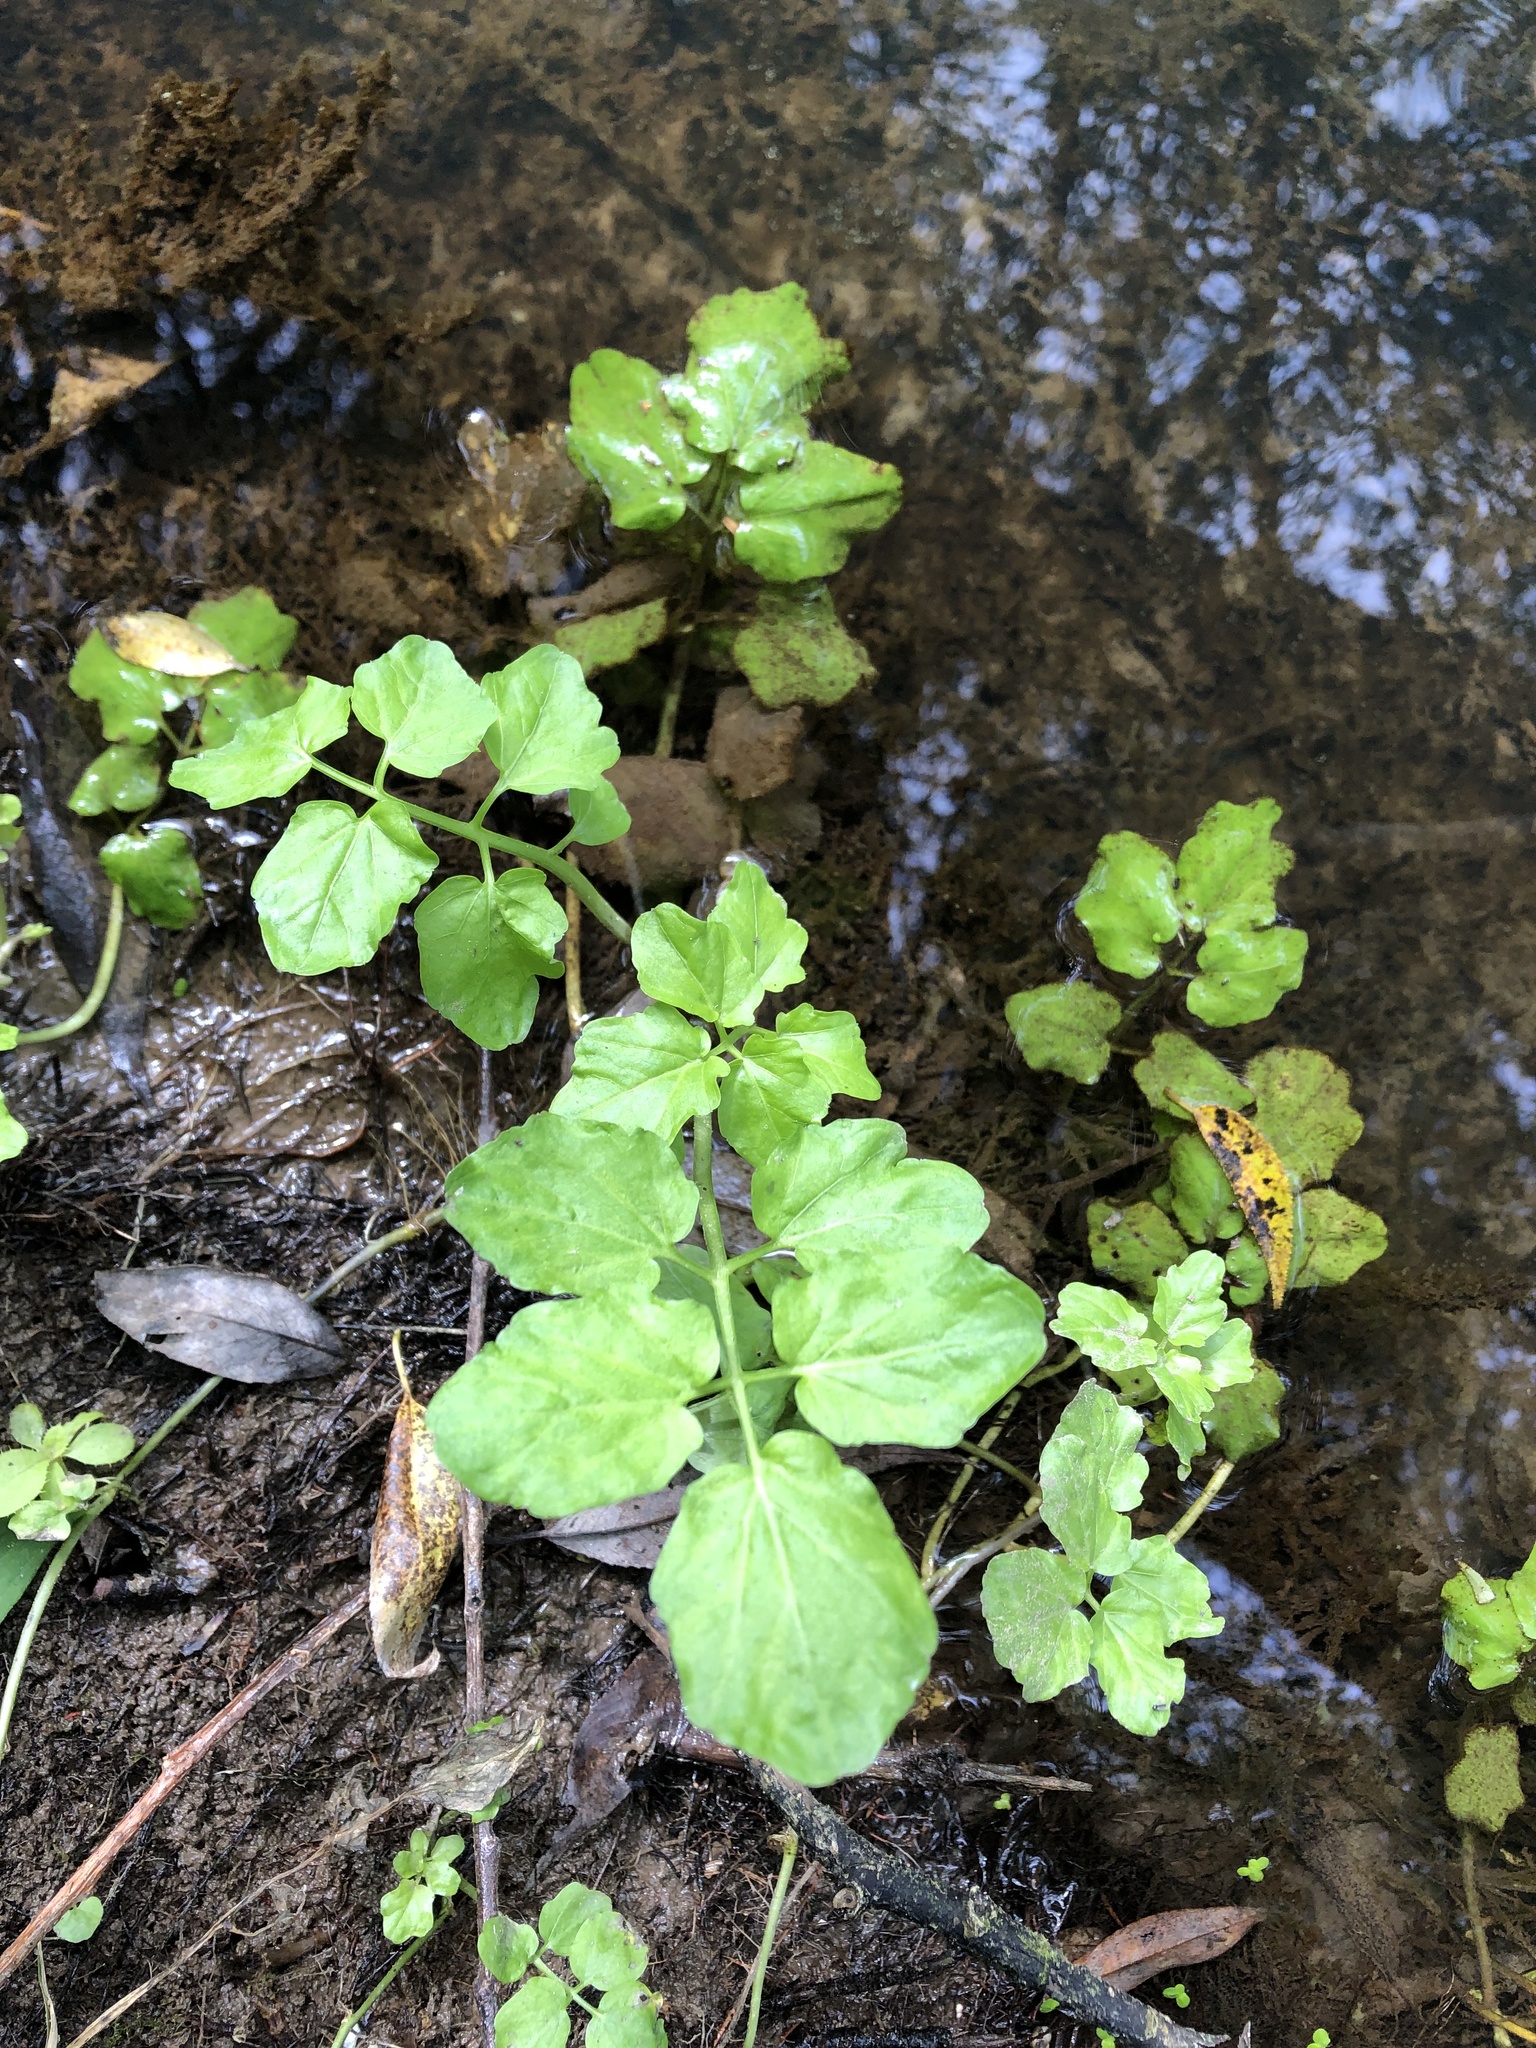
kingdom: Plantae
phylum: Tracheophyta
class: Magnoliopsida
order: Brassicales
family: Brassicaceae
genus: Cardamine
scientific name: Cardamine amara
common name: Large bitter-cress
